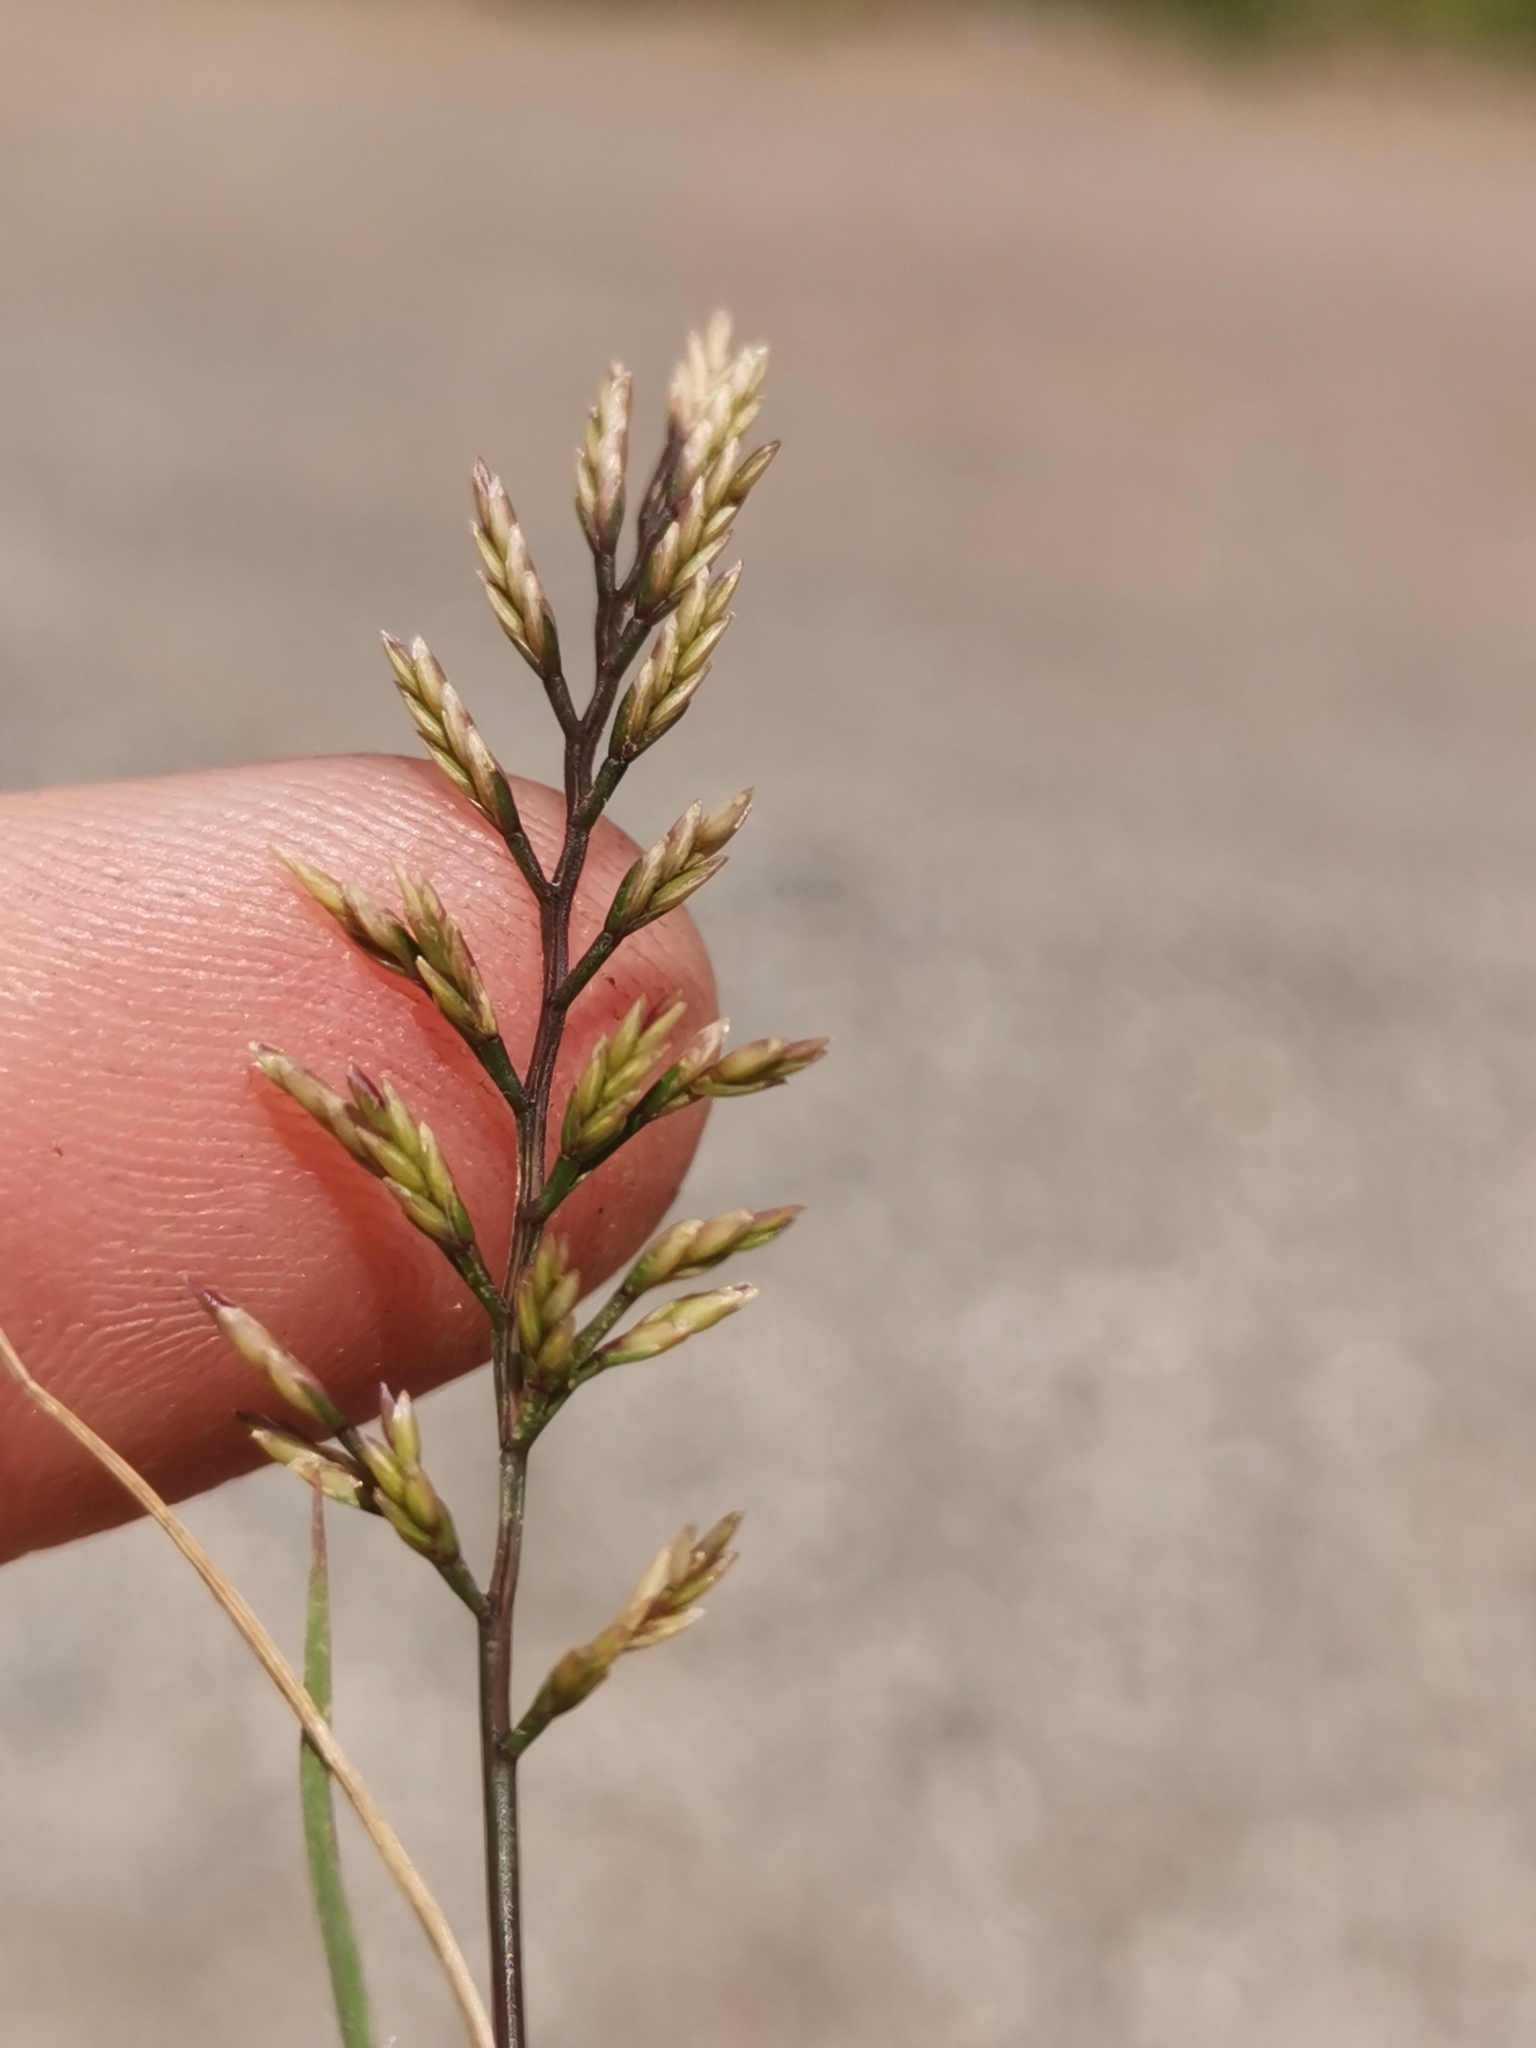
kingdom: Plantae
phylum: Tracheophyta
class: Liliopsida
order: Poales
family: Poaceae
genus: Catapodium
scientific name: Catapodium rigidum
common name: Fern-grass
